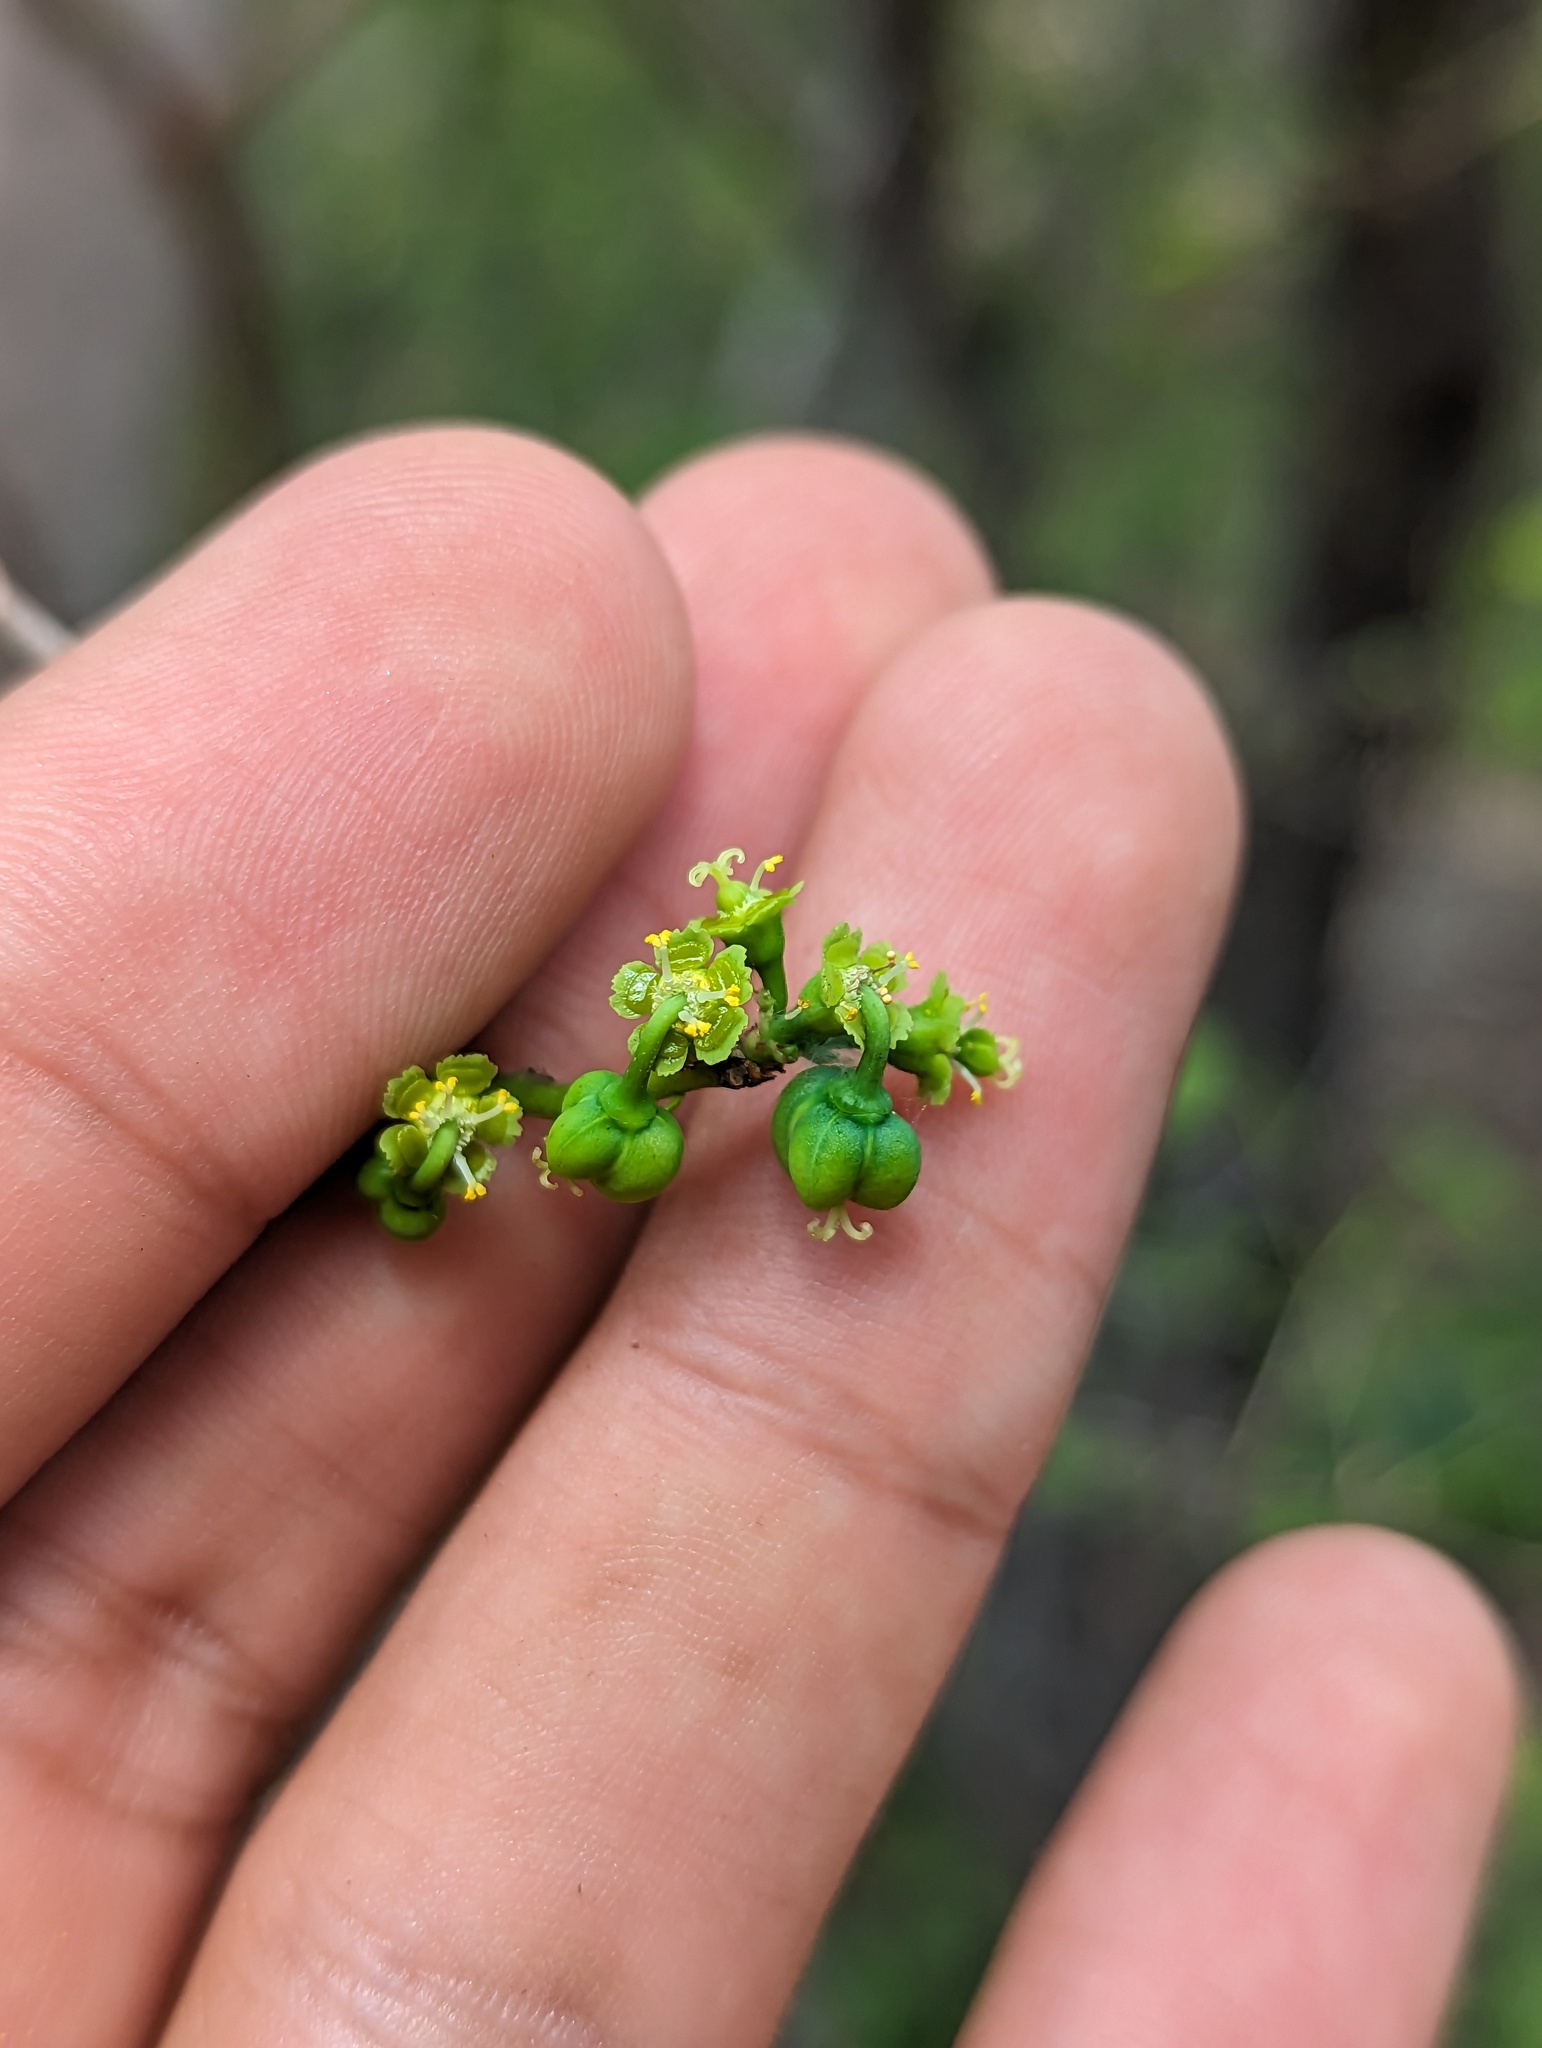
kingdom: Plantae
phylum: Tracheophyta
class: Magnoliopsida
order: Malpighiales
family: Euphorbiaceae
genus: Euphorbia
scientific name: Euphorbia californica
